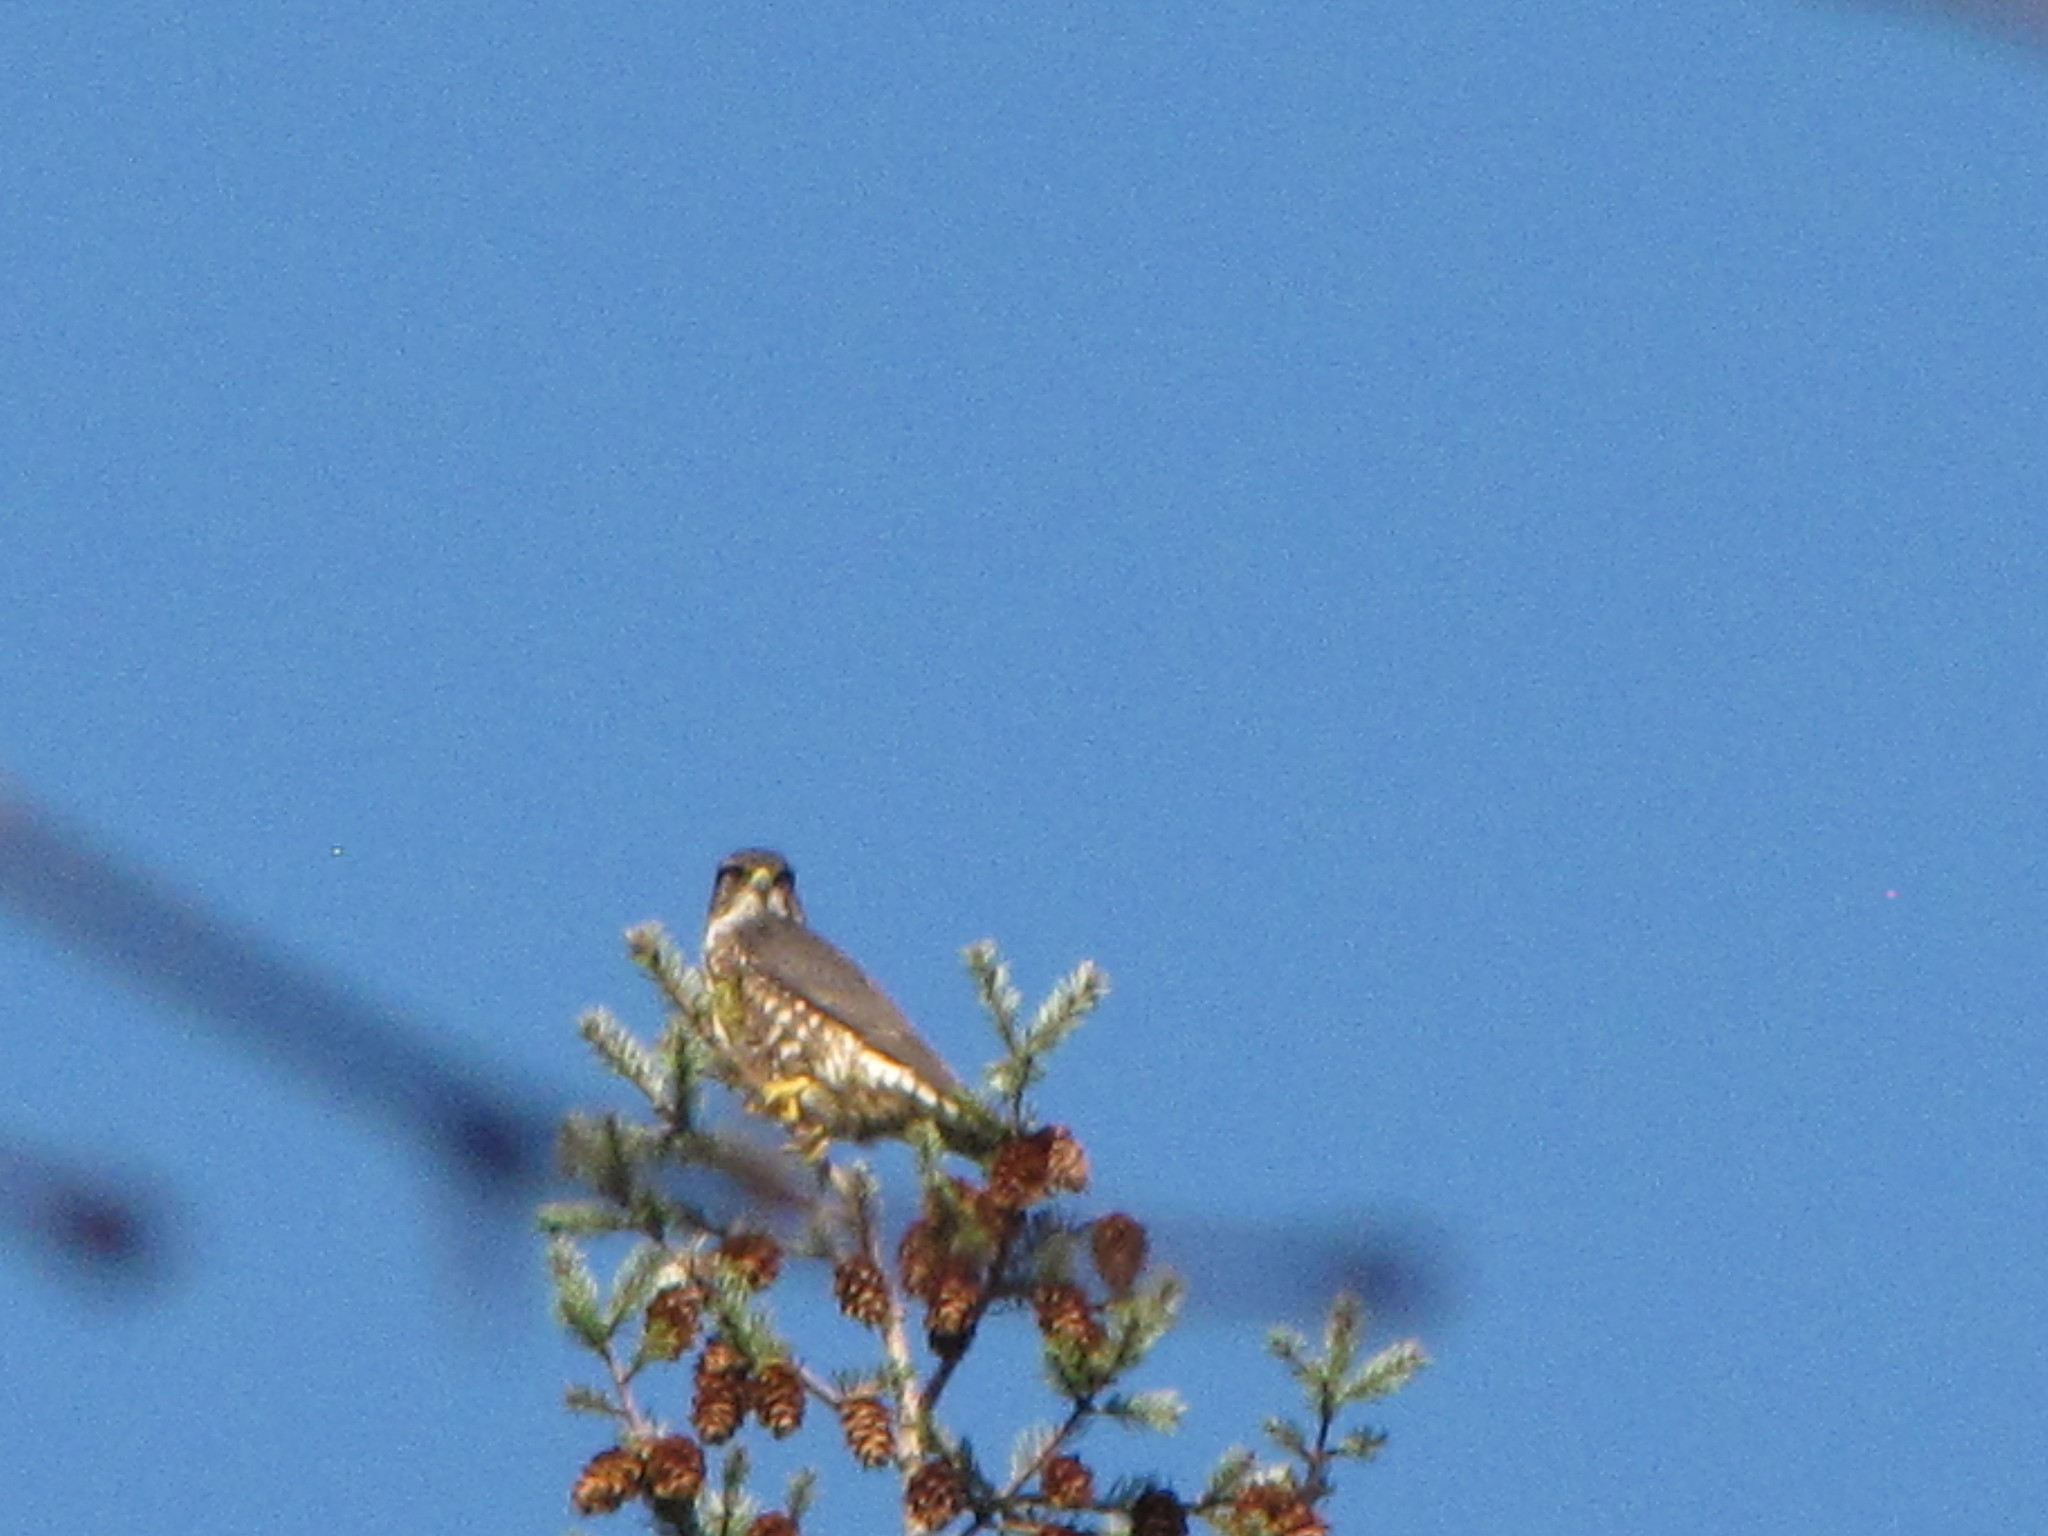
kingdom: Animalia
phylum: Chordata
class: Aves
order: Falconiformes
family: Falconidae
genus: Falco
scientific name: Falco columbarius
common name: Merlin
